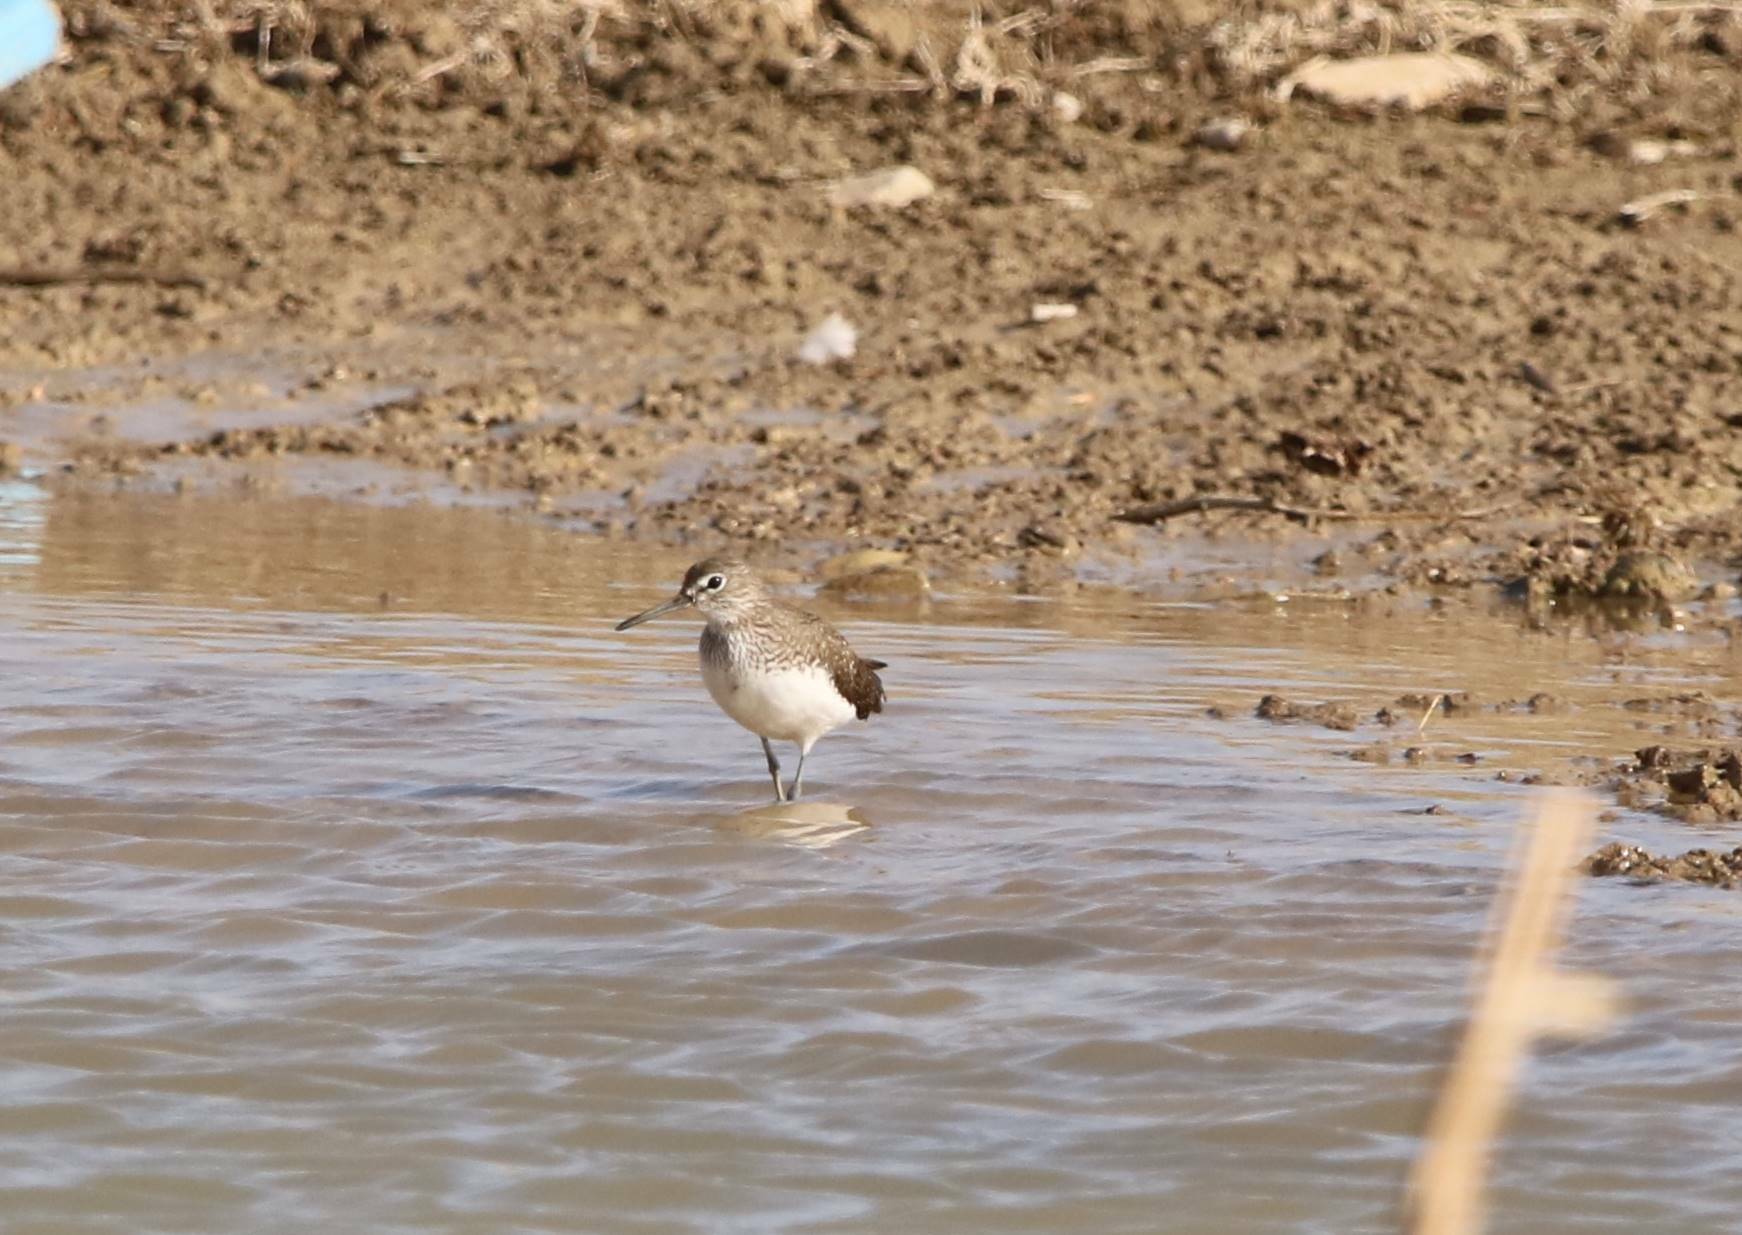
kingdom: Animalia
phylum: Chordata
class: Aves
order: Charadriiformes
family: Scolopacidae
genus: Tringa
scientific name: Tringa ochropus
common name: Green sandpiper
